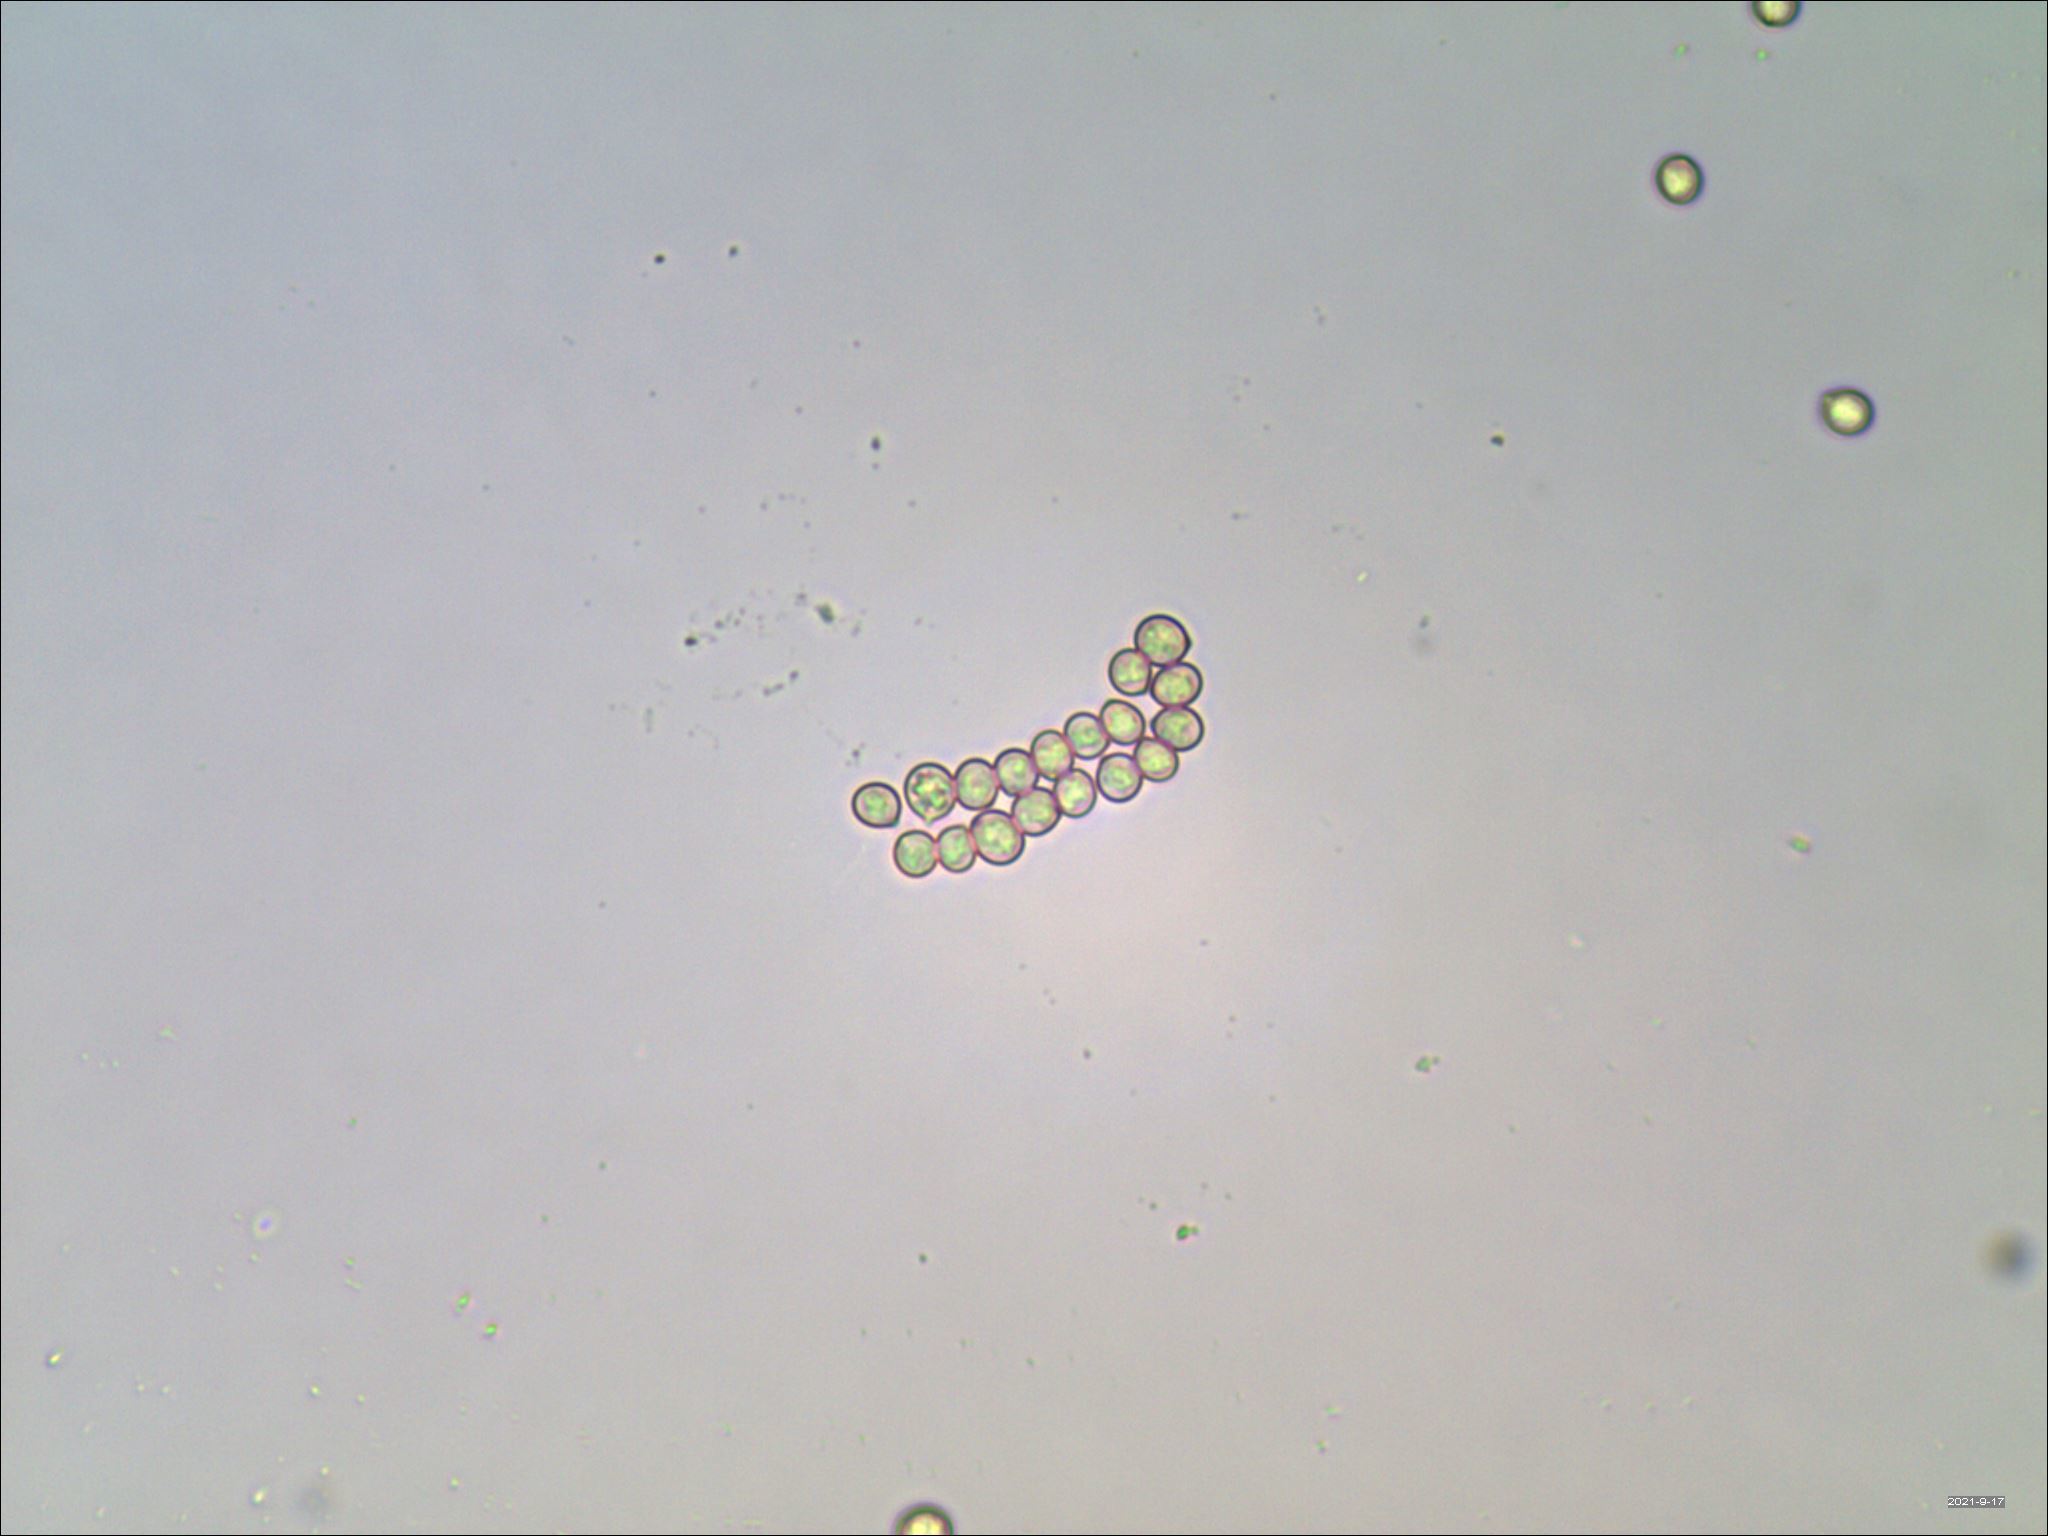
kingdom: Fungi
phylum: Basidiomycota
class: Agaricomycetes
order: Agaricales
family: Pluteaceae
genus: Pluteus
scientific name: Pluteus romellii
